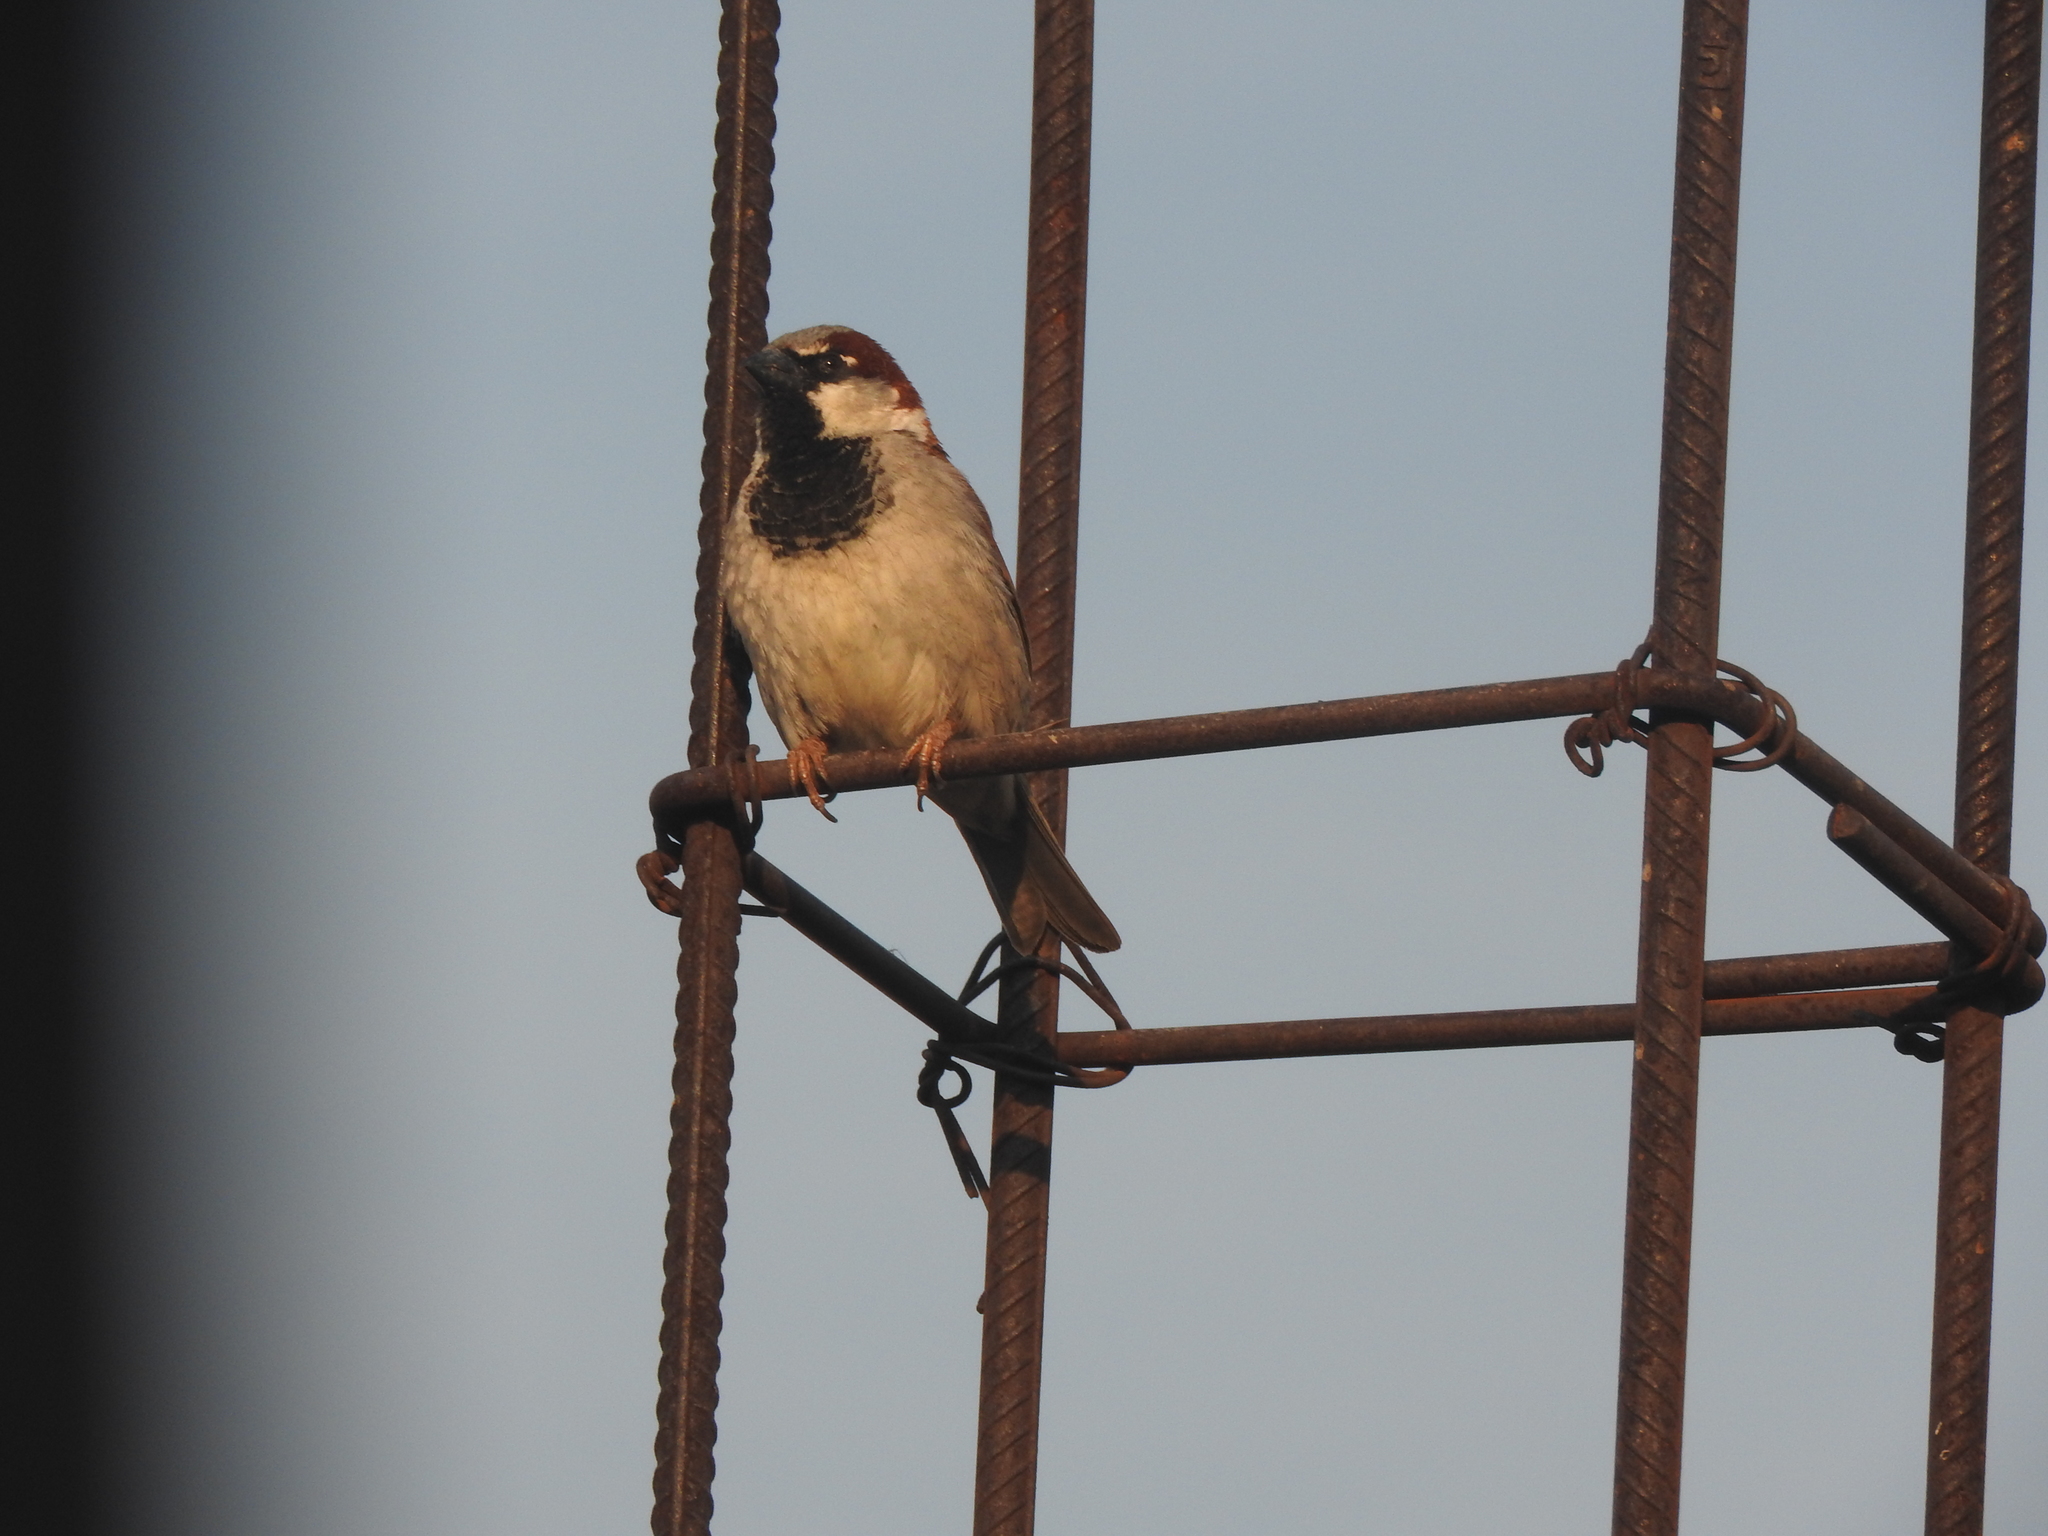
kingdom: Animalia
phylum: Chordata
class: Aves
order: Passeriformes
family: Passeridae
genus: Passer
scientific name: Passer domesticus
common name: House sparrow
